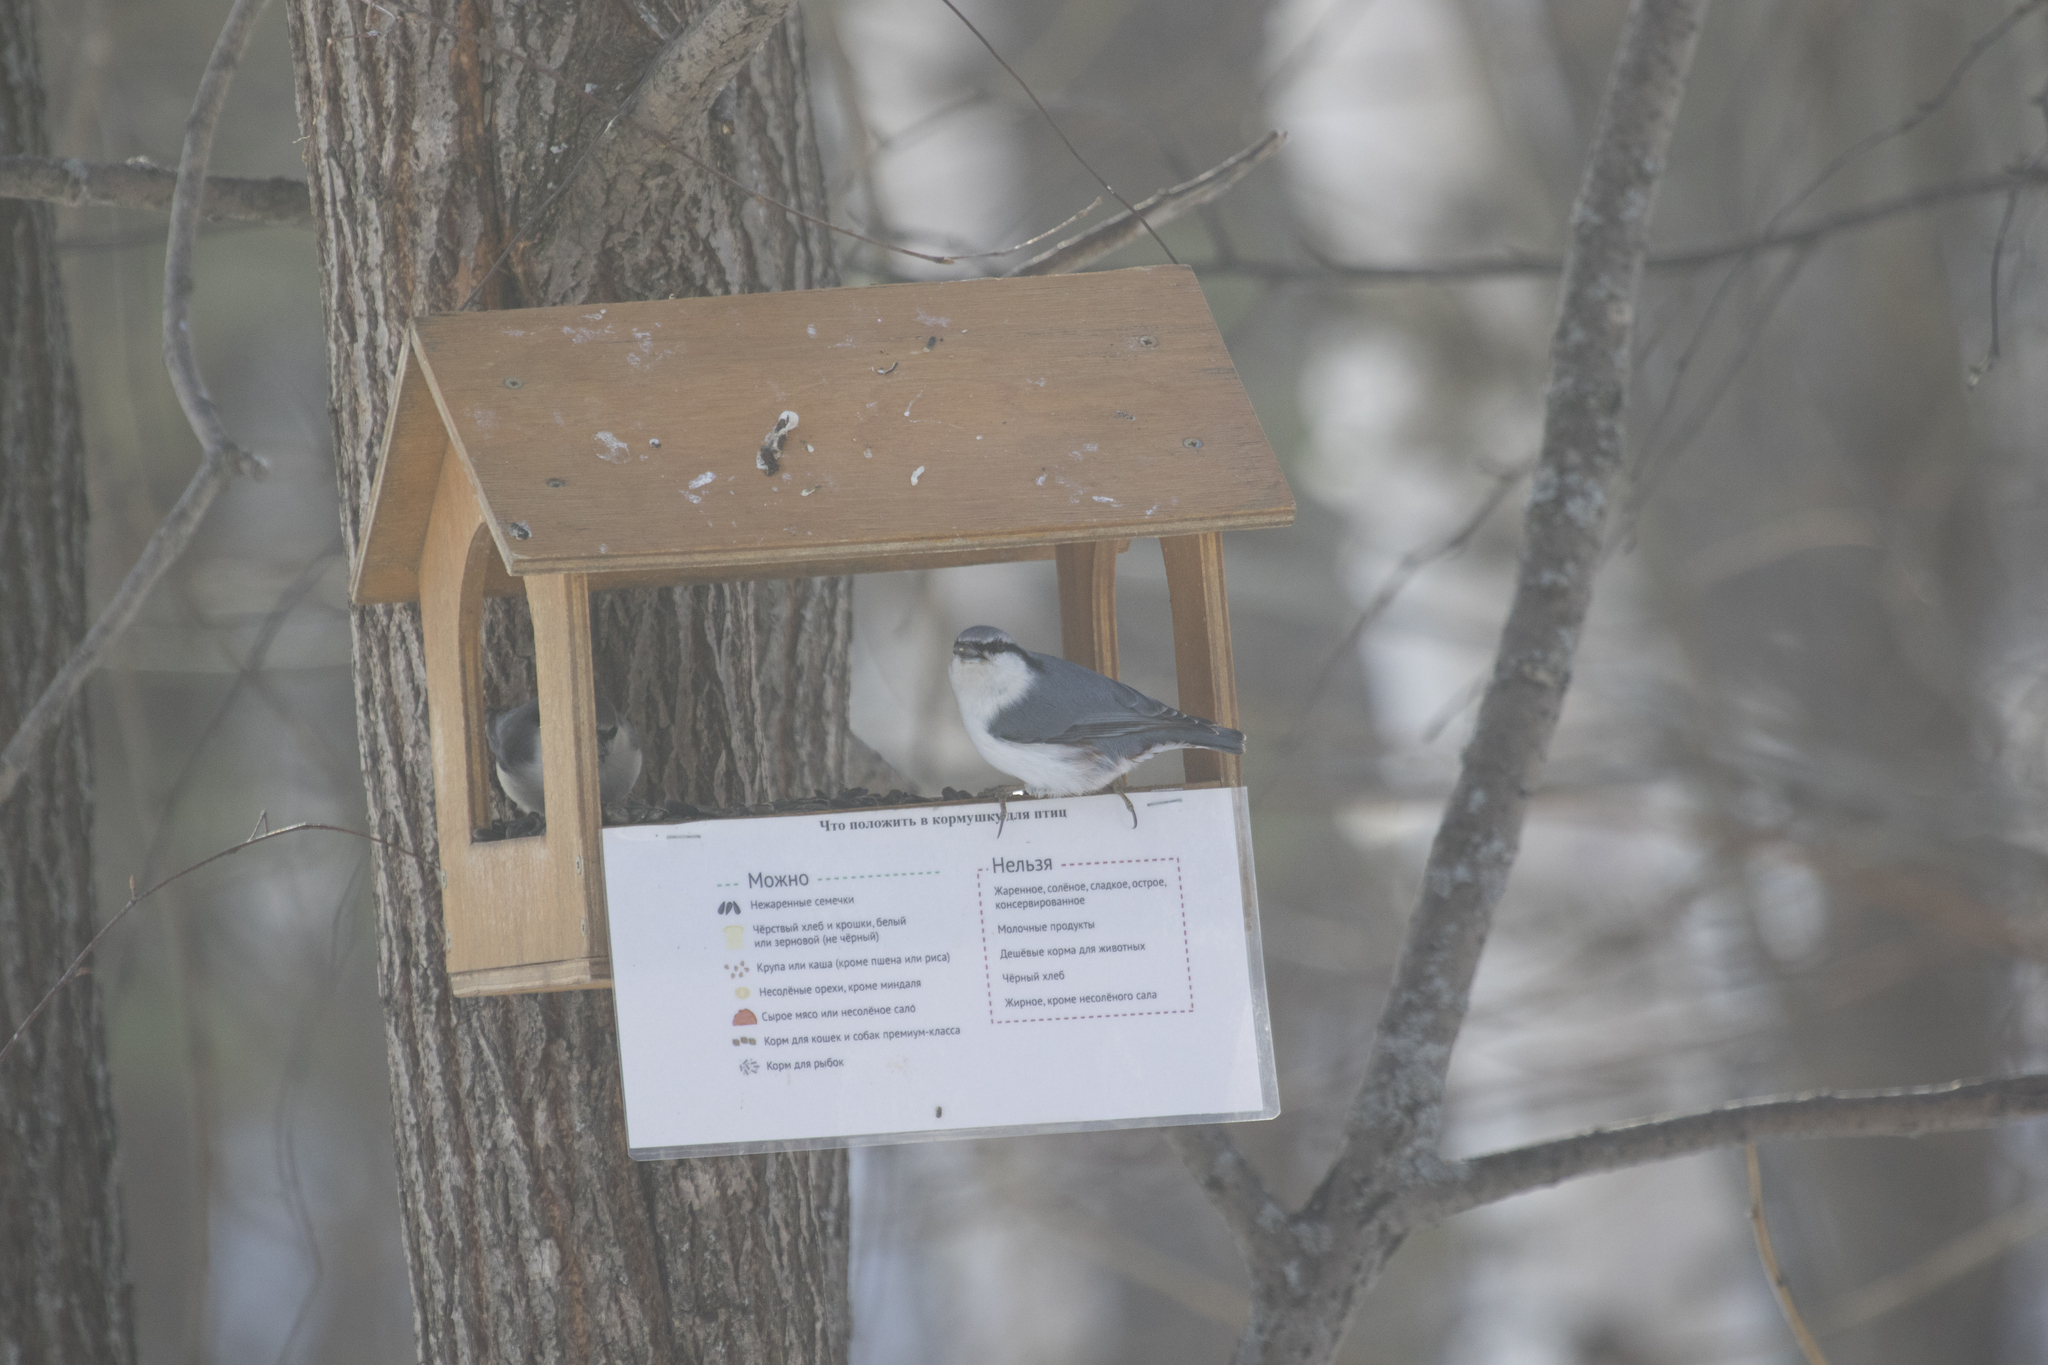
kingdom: Animalia
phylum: Chordata
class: Aves
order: Passeriformes
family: Sittidae
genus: Sitta
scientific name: Sitta europaea
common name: Eurasian nuthatch
